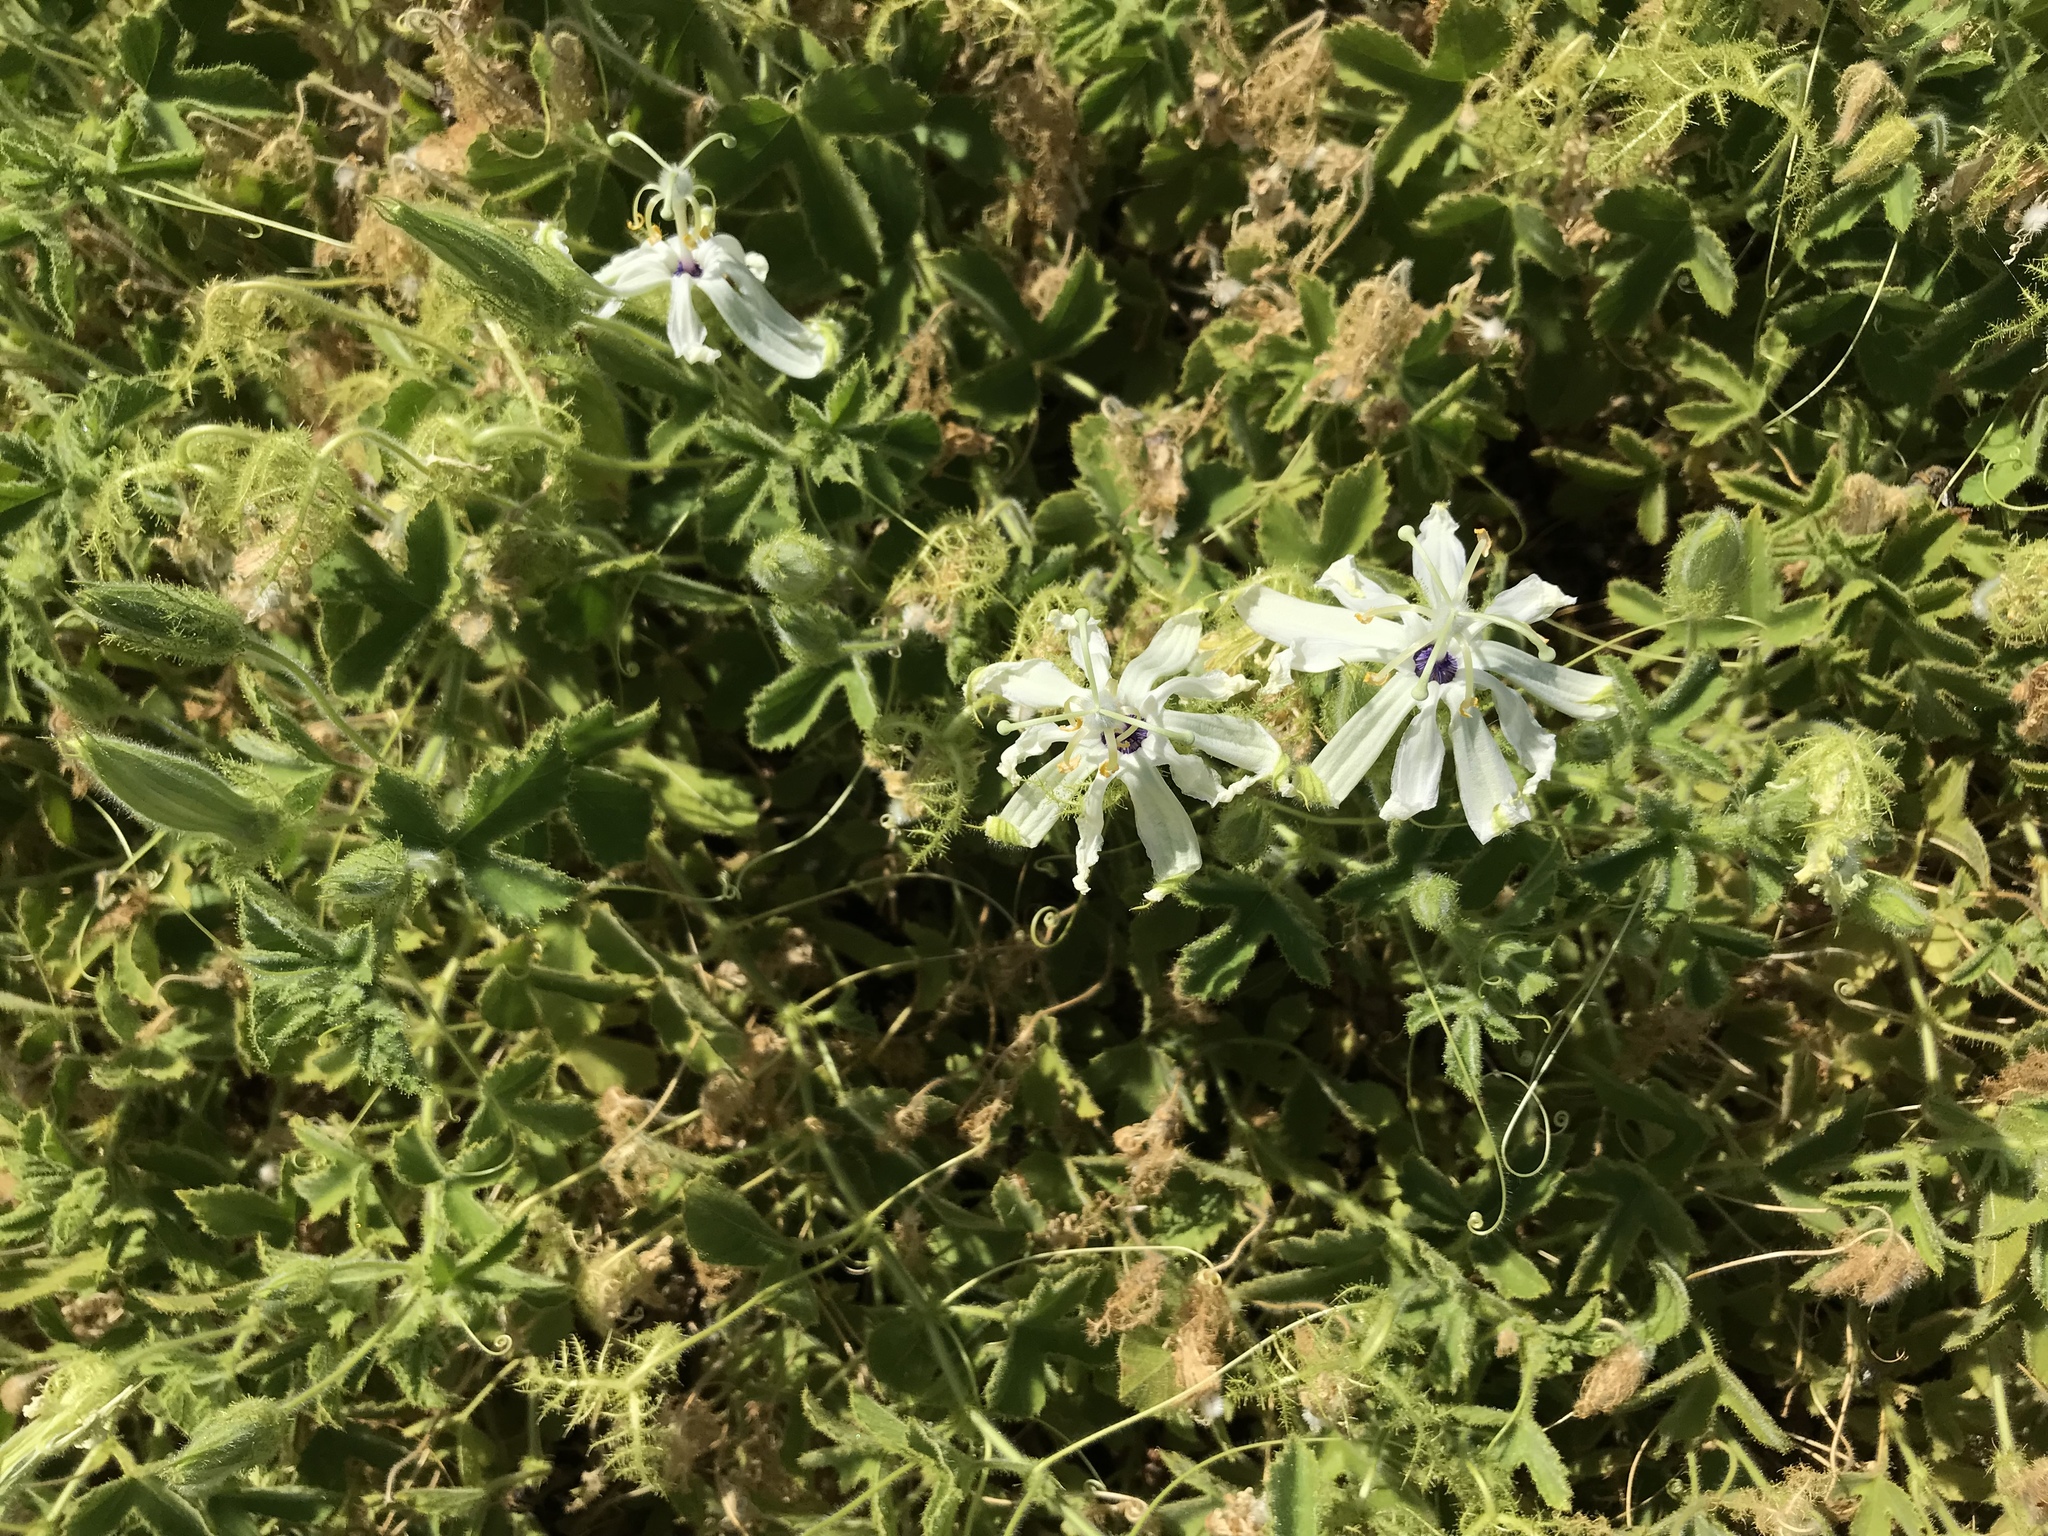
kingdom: Plantae
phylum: Tracheophyta
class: Magnoliopsida
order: Malpighiales
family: Passifloraceae
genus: Passiflora
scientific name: Passiflora palmeri
